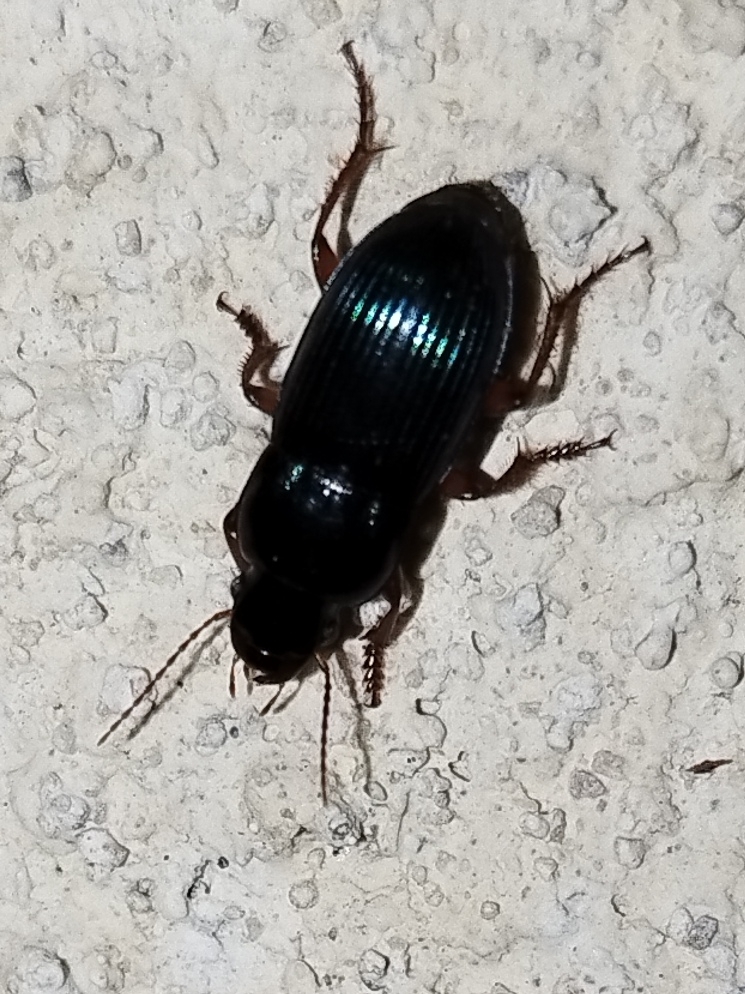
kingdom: Animalia
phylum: Arthropoda
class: Insecta
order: Coleoptera
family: Carabidae
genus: Harpalus
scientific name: Harpalus rubripes
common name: Red-legged harp ground beetle
